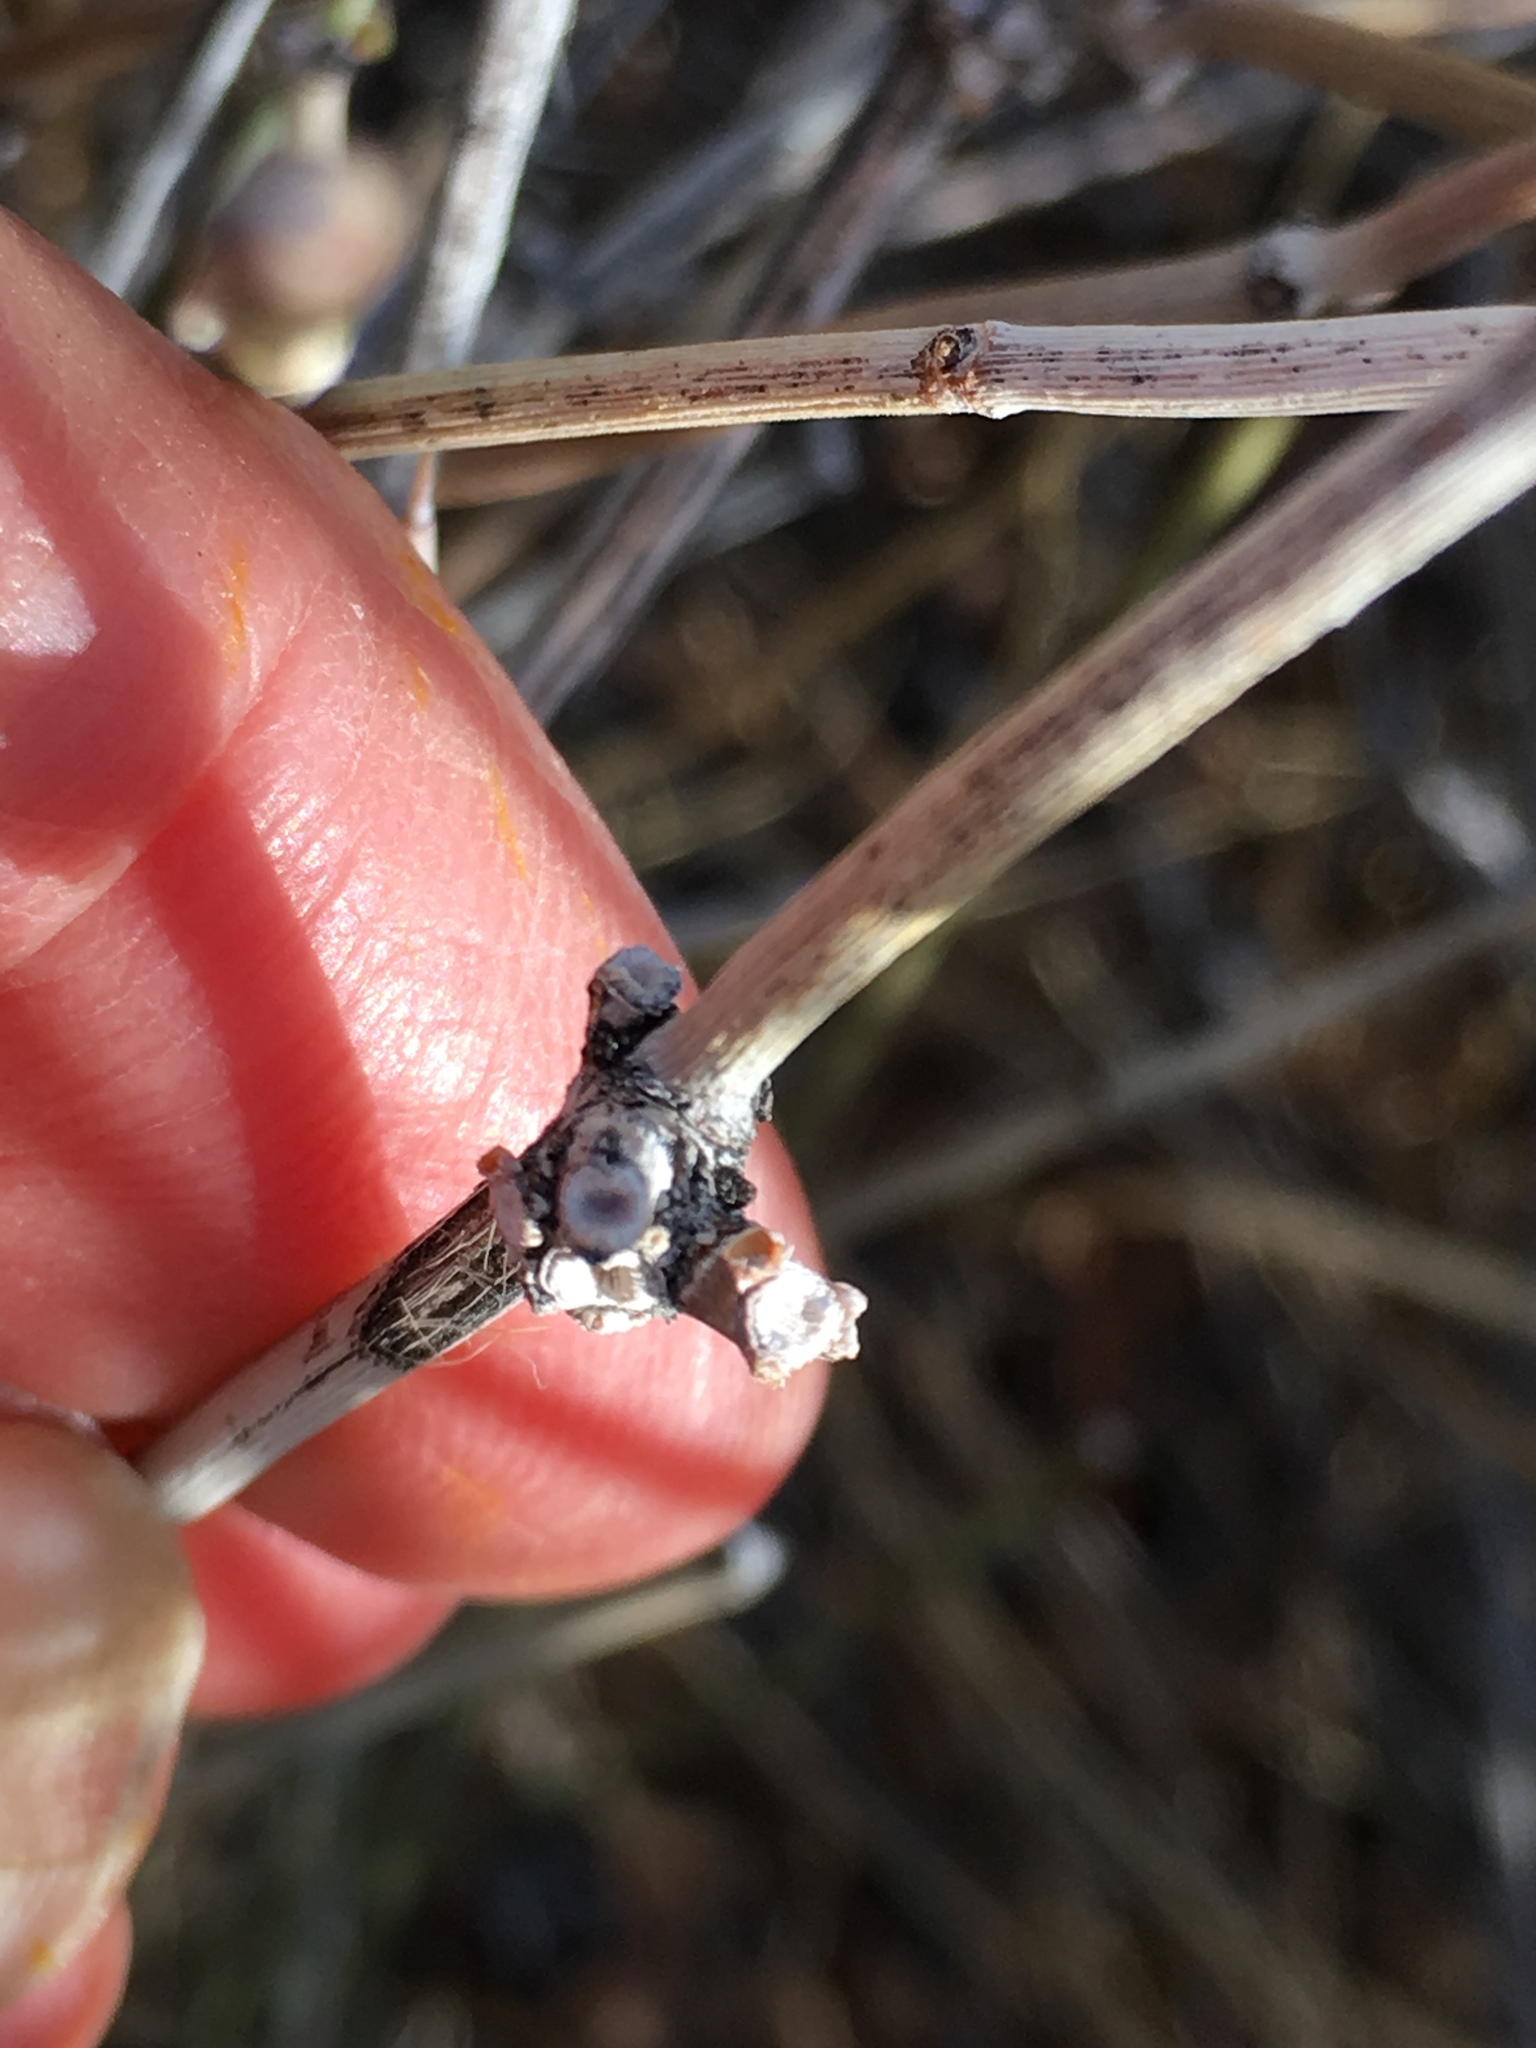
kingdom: Plantae
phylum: Tracheophyta
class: Gnetopsida
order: Ephedrales
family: Ephedraceae
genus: Ephedra
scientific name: Ephedra californica
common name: California ephedra
